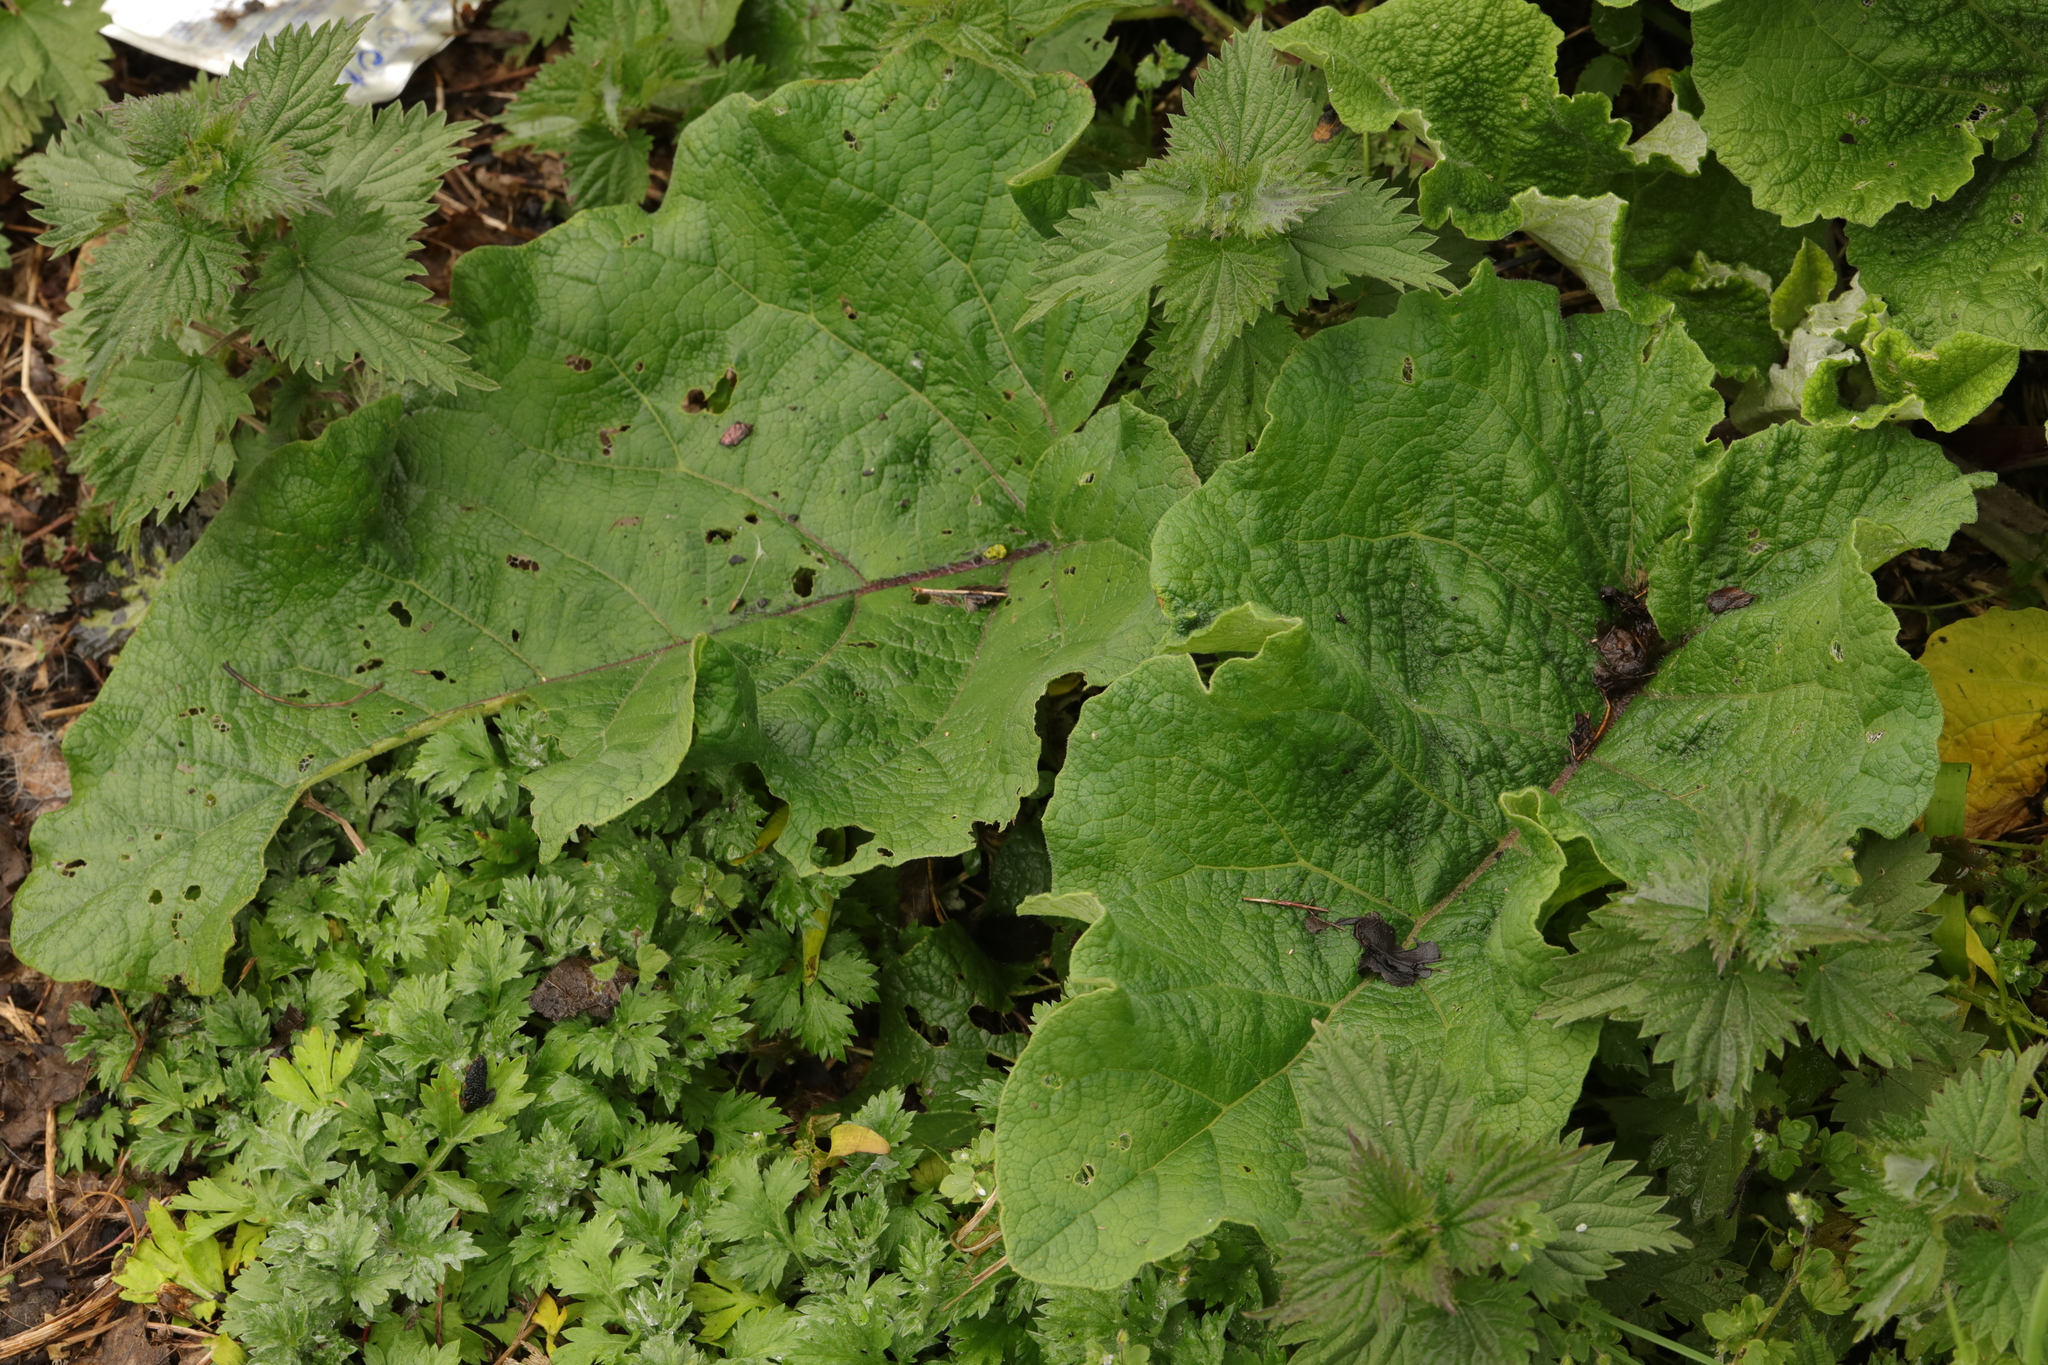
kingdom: Plantae
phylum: Tracheophyta
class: Magnoliopsida
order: Asterales
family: Asteraceae
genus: Arctium
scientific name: Arctium minus
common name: Lesser burdock
